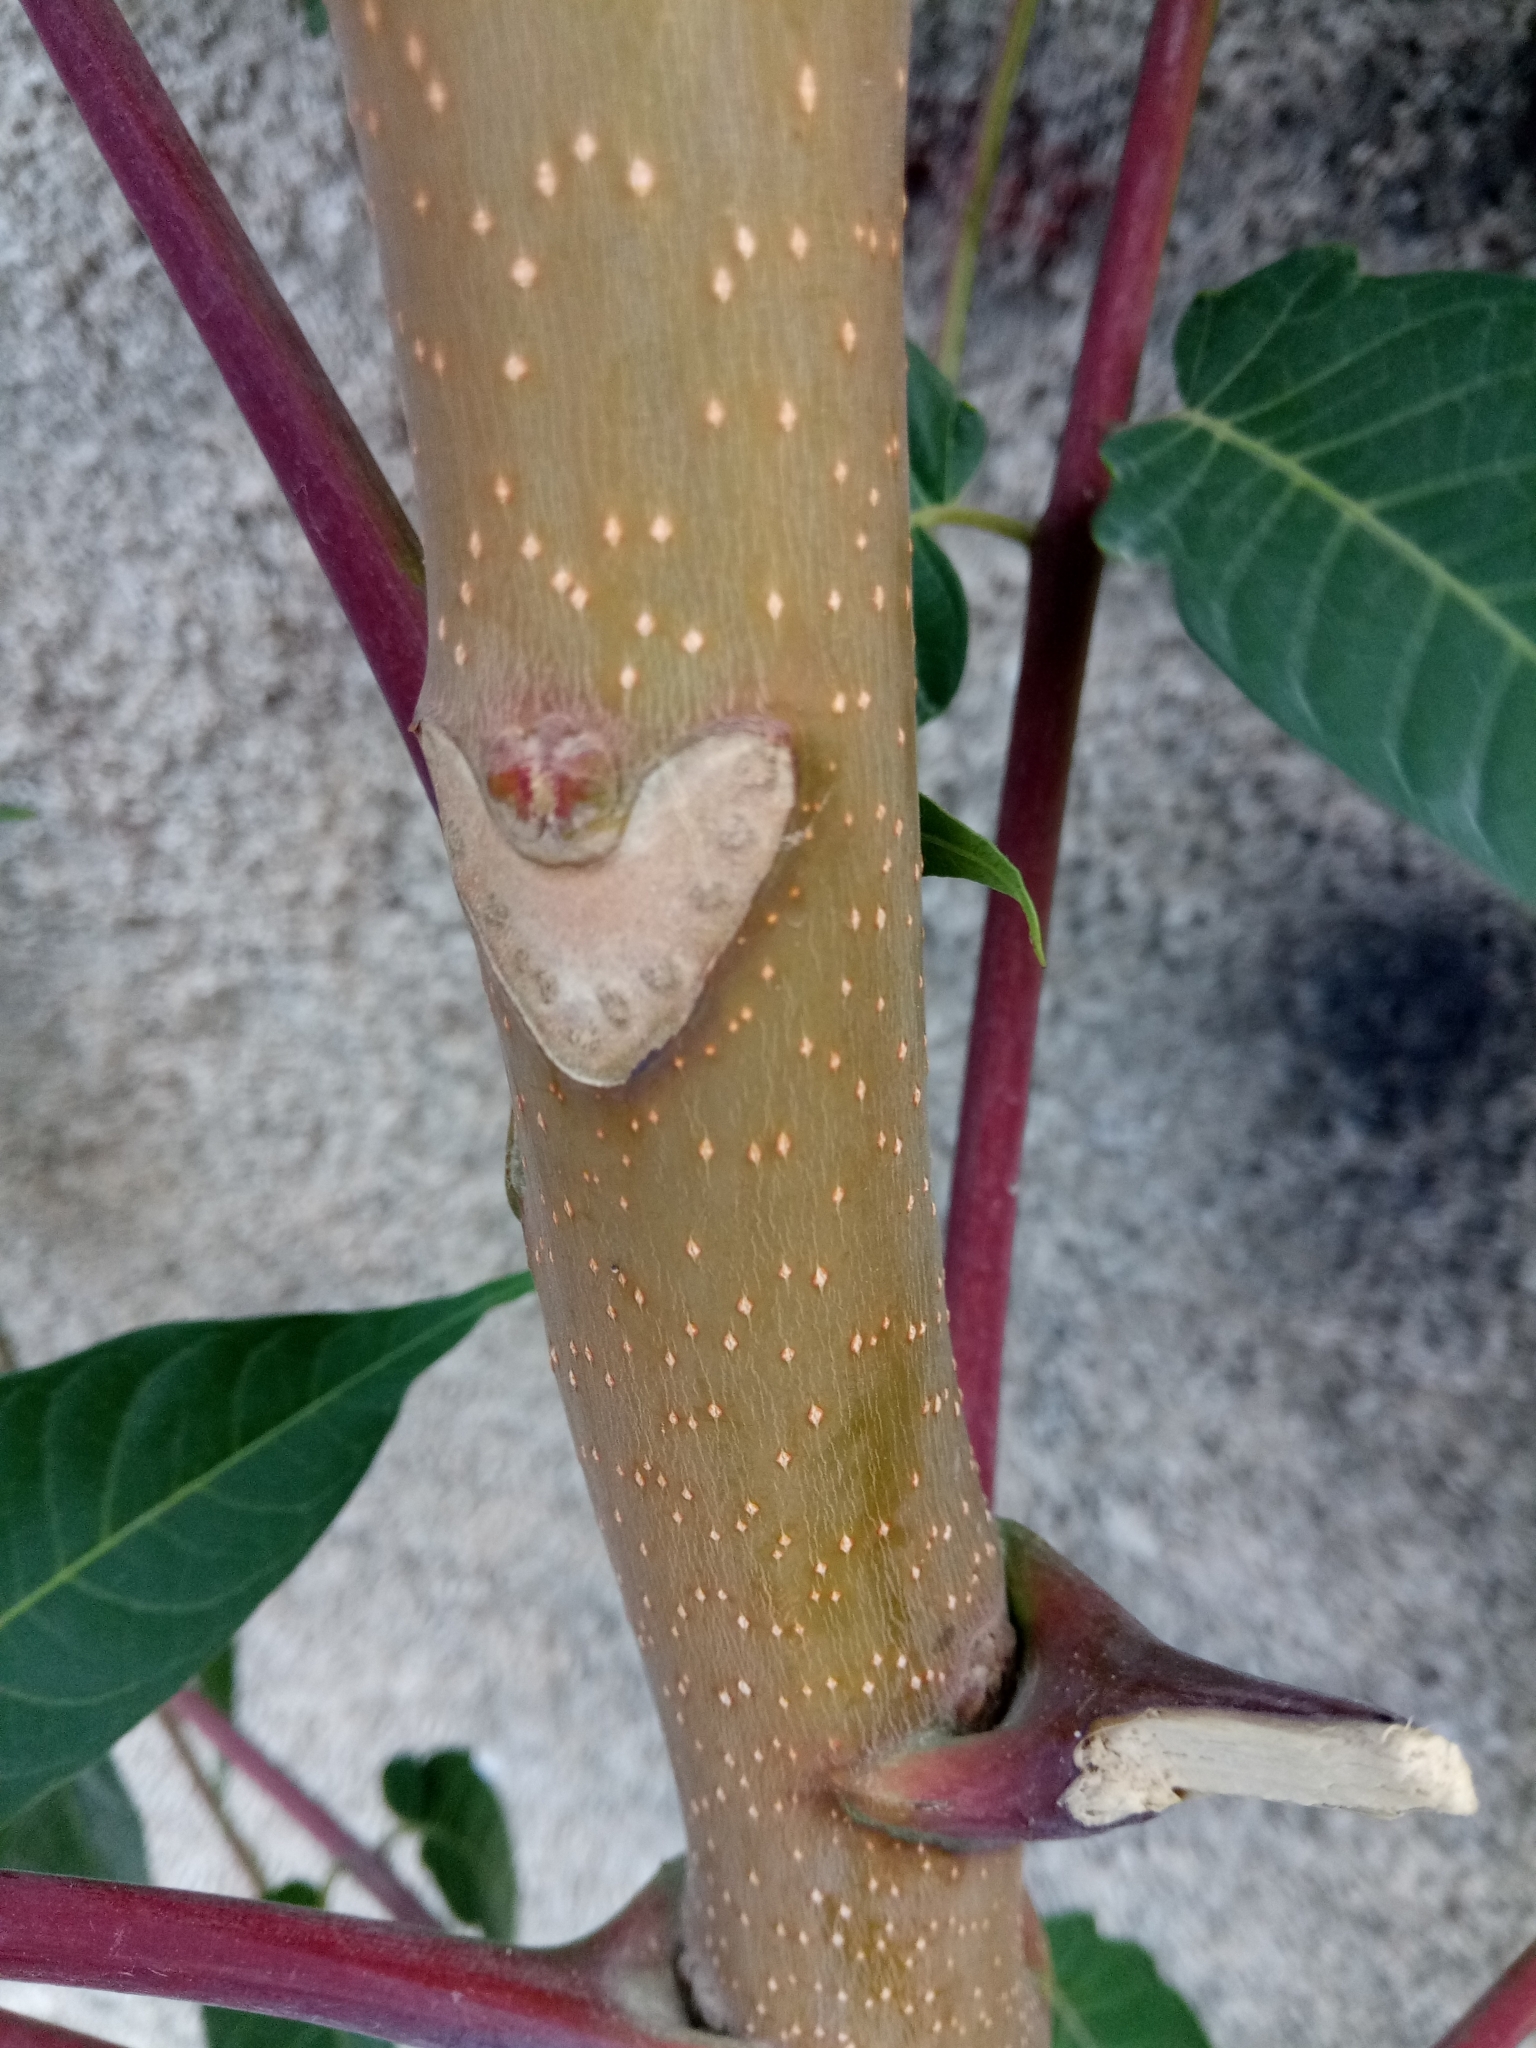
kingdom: Plantae
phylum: Tracheophyta
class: Magnoliopsida
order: Sapindales
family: Simaroubaceae
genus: Ailanthus
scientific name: Ailanthus altissima
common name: Tree-of-heaven
